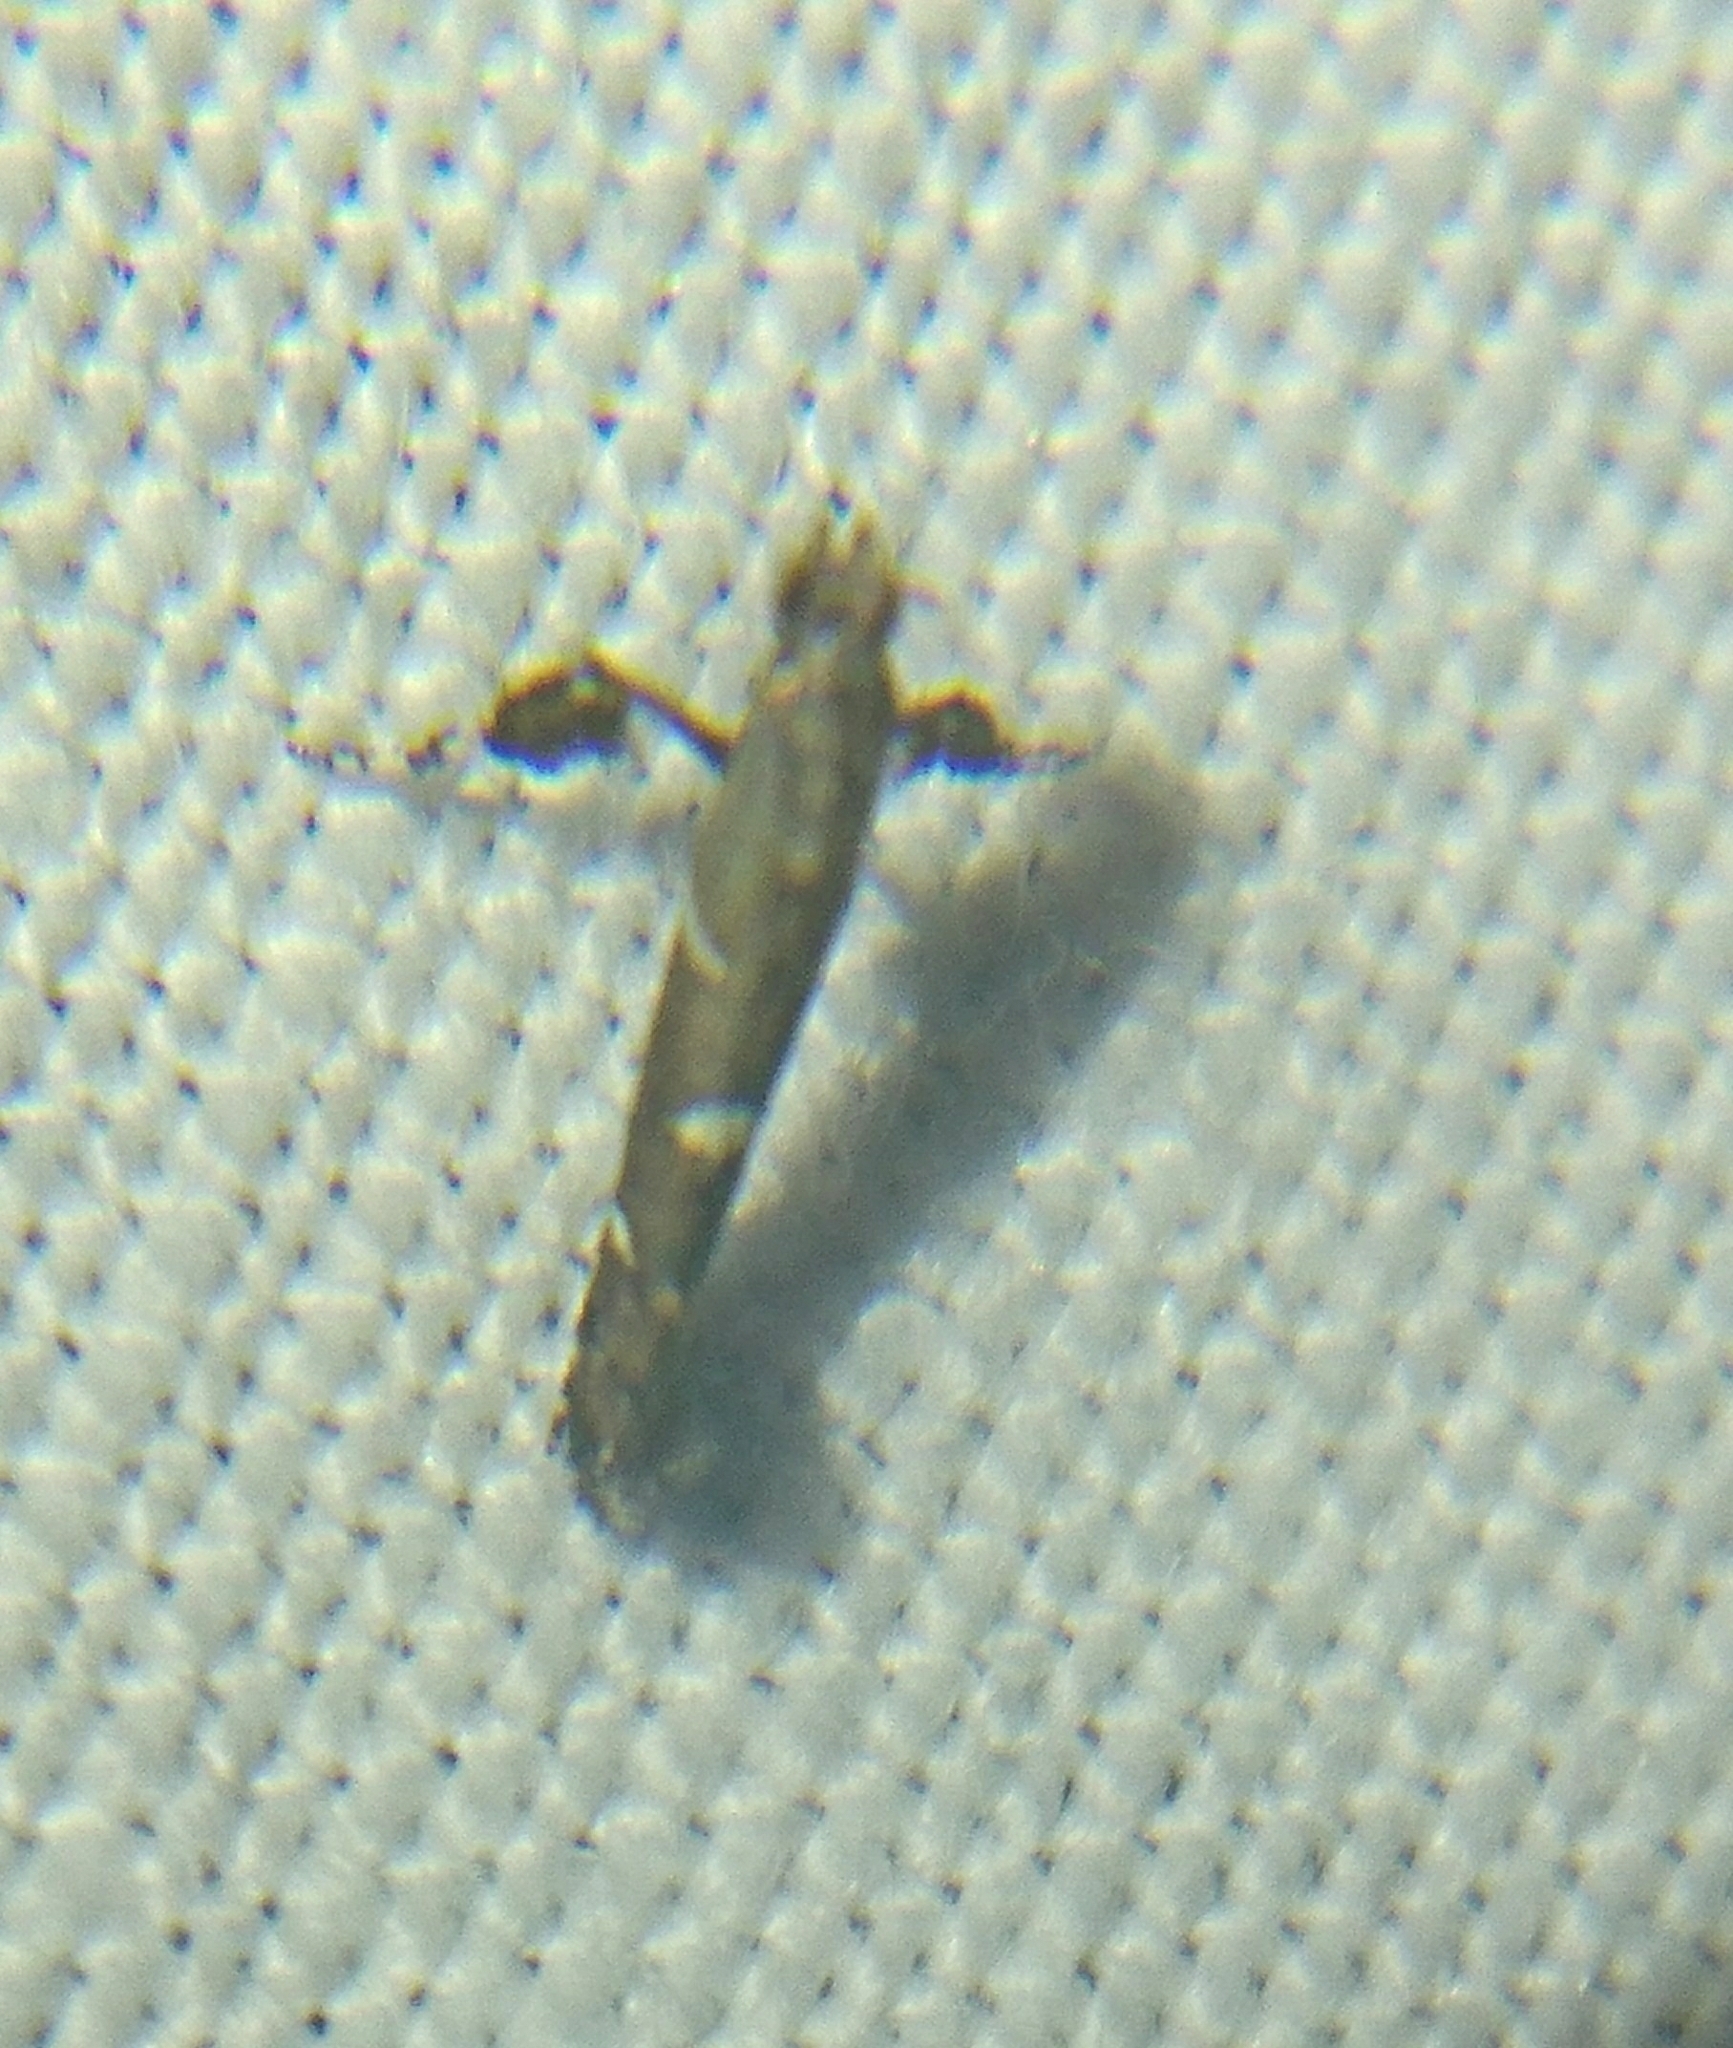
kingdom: Animalia
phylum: Arthropoda
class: Insecta
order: Lepidoptera
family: Gracillariidae
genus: Caloptilia
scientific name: Caloptilia triadicae
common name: Tallow leaf roller
